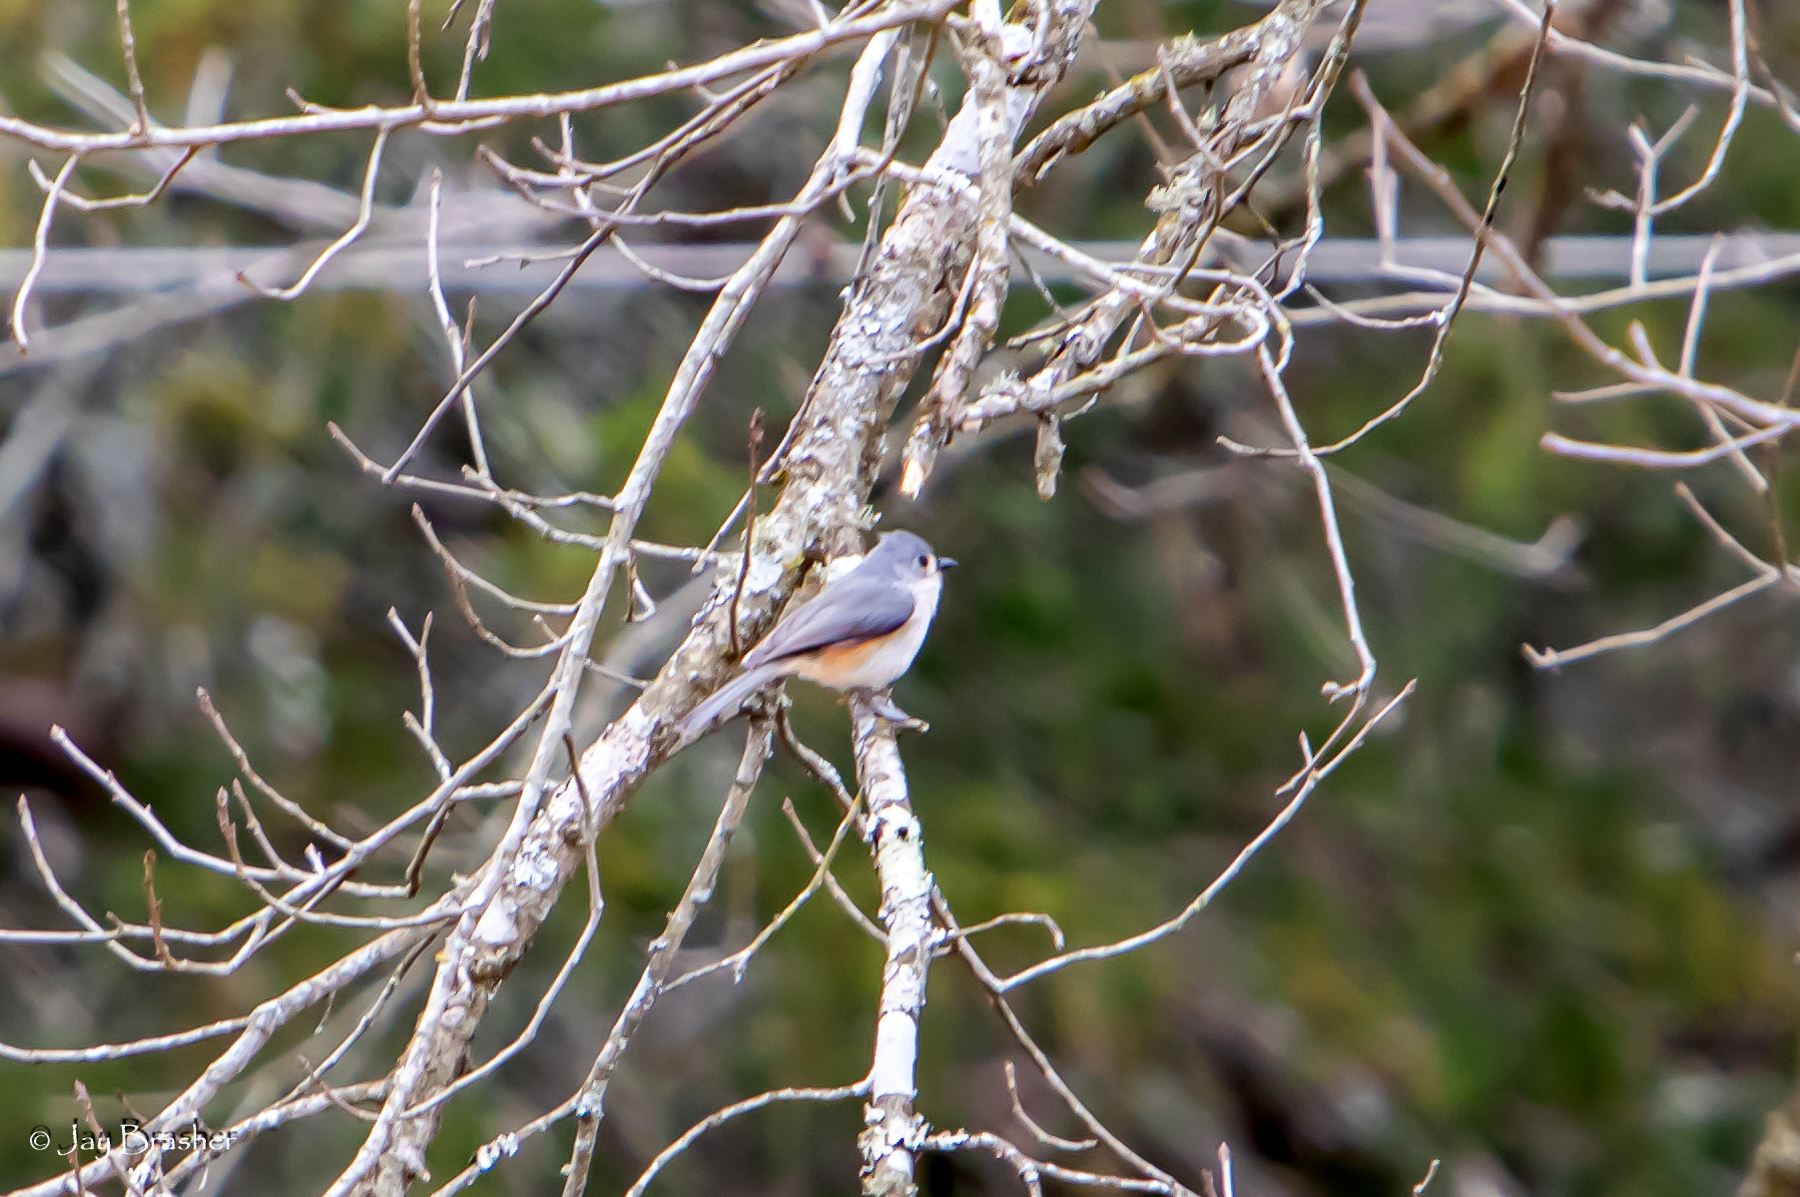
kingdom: Animalia
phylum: Chordata
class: Aves
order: Passeriformes
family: Paridae
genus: Baeolophus
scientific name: Baeolophus bicolor
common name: Tufted titmouse
